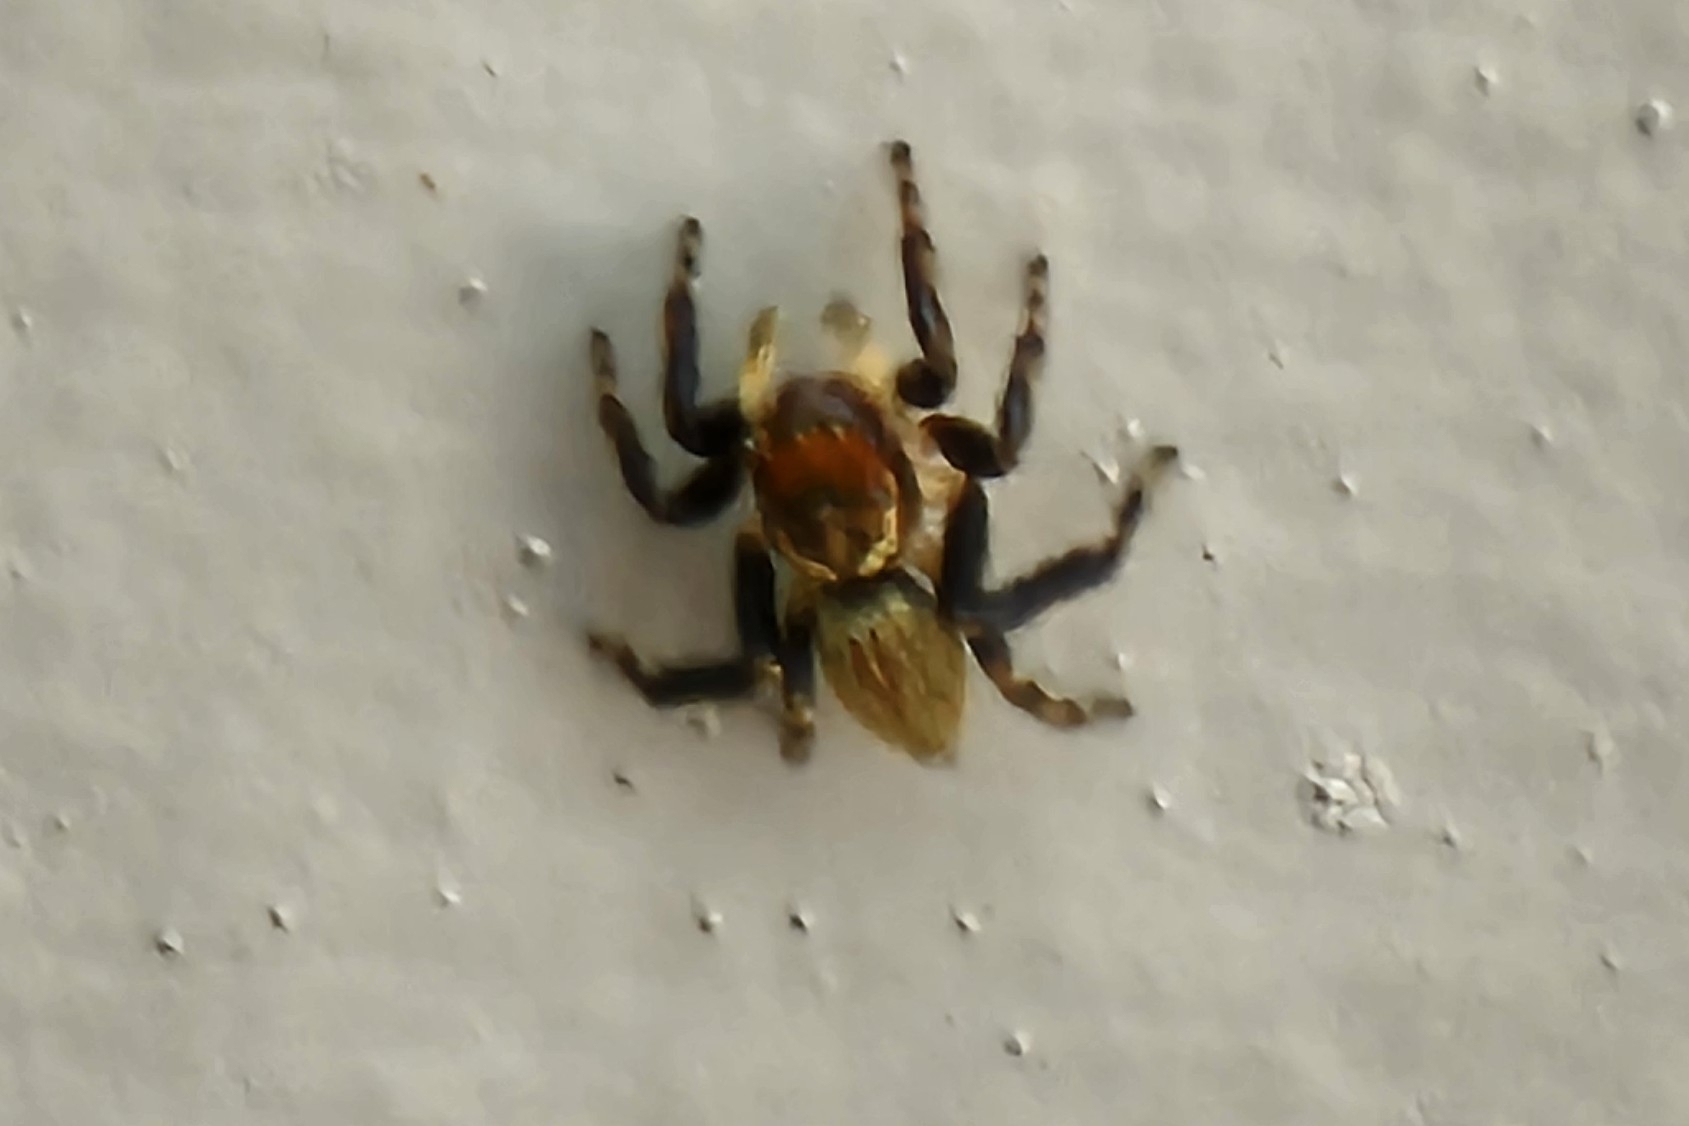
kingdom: Animalia
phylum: Arthropoda
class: Arachnida
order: Araneae
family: Salticidae
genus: Maratus
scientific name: Maratus griseus
